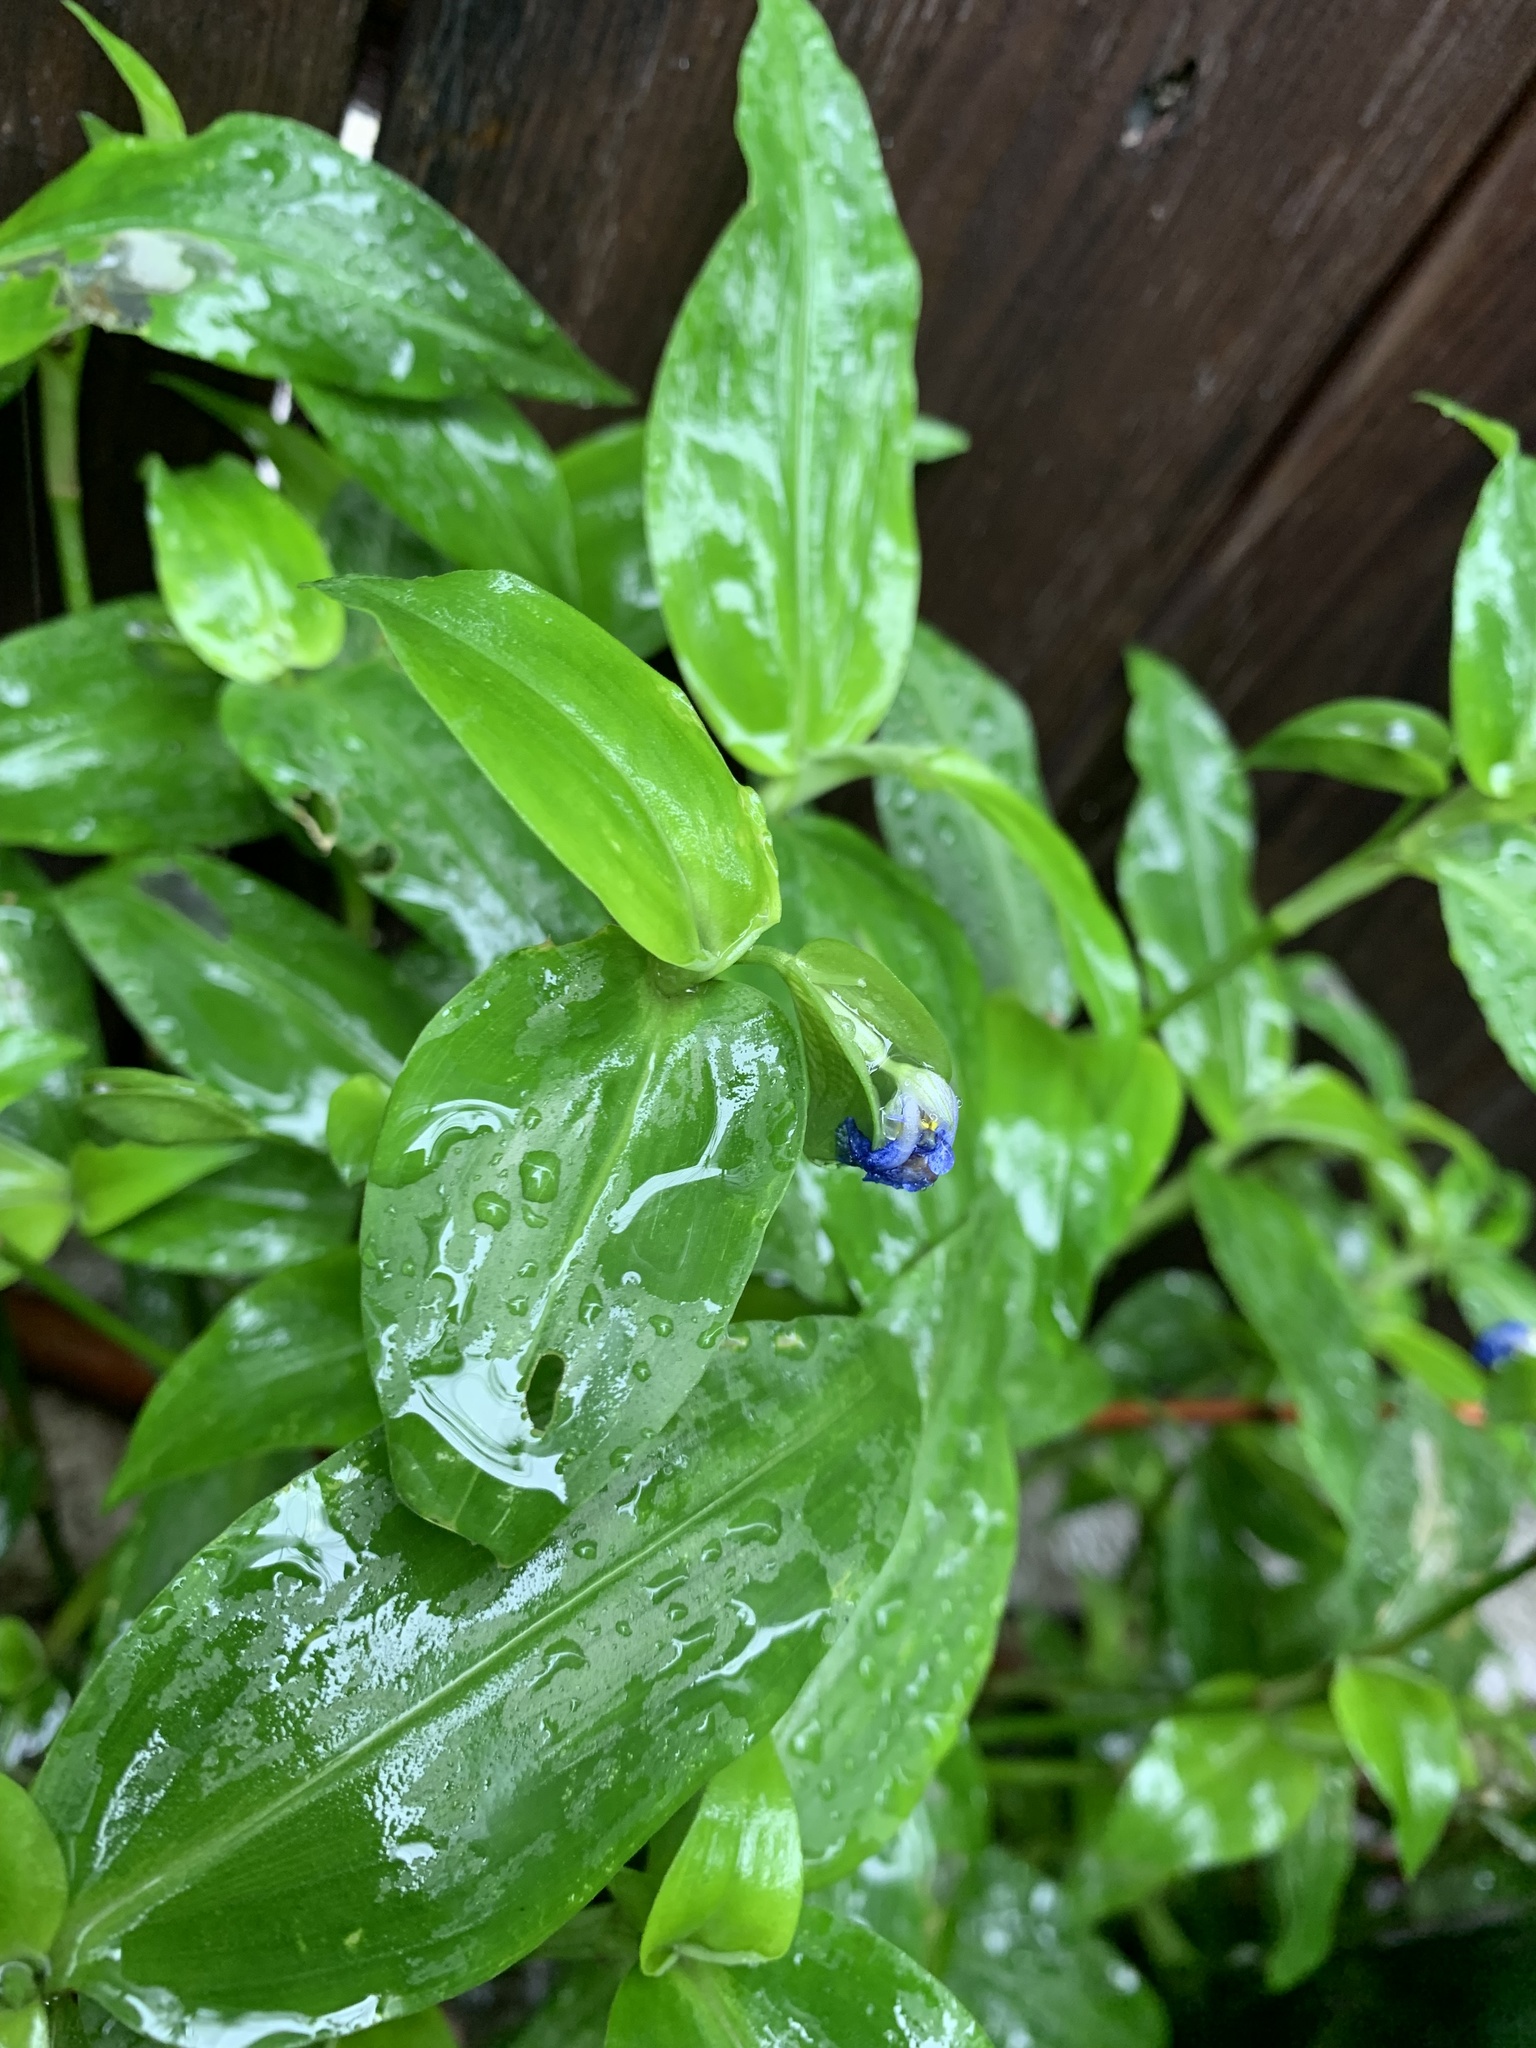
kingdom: Plantae
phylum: Tracheophyta
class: Liliopsida
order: Commelinales
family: Commelinaceae
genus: Commelina
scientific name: Commelina communis
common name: Asiatic dayflower
